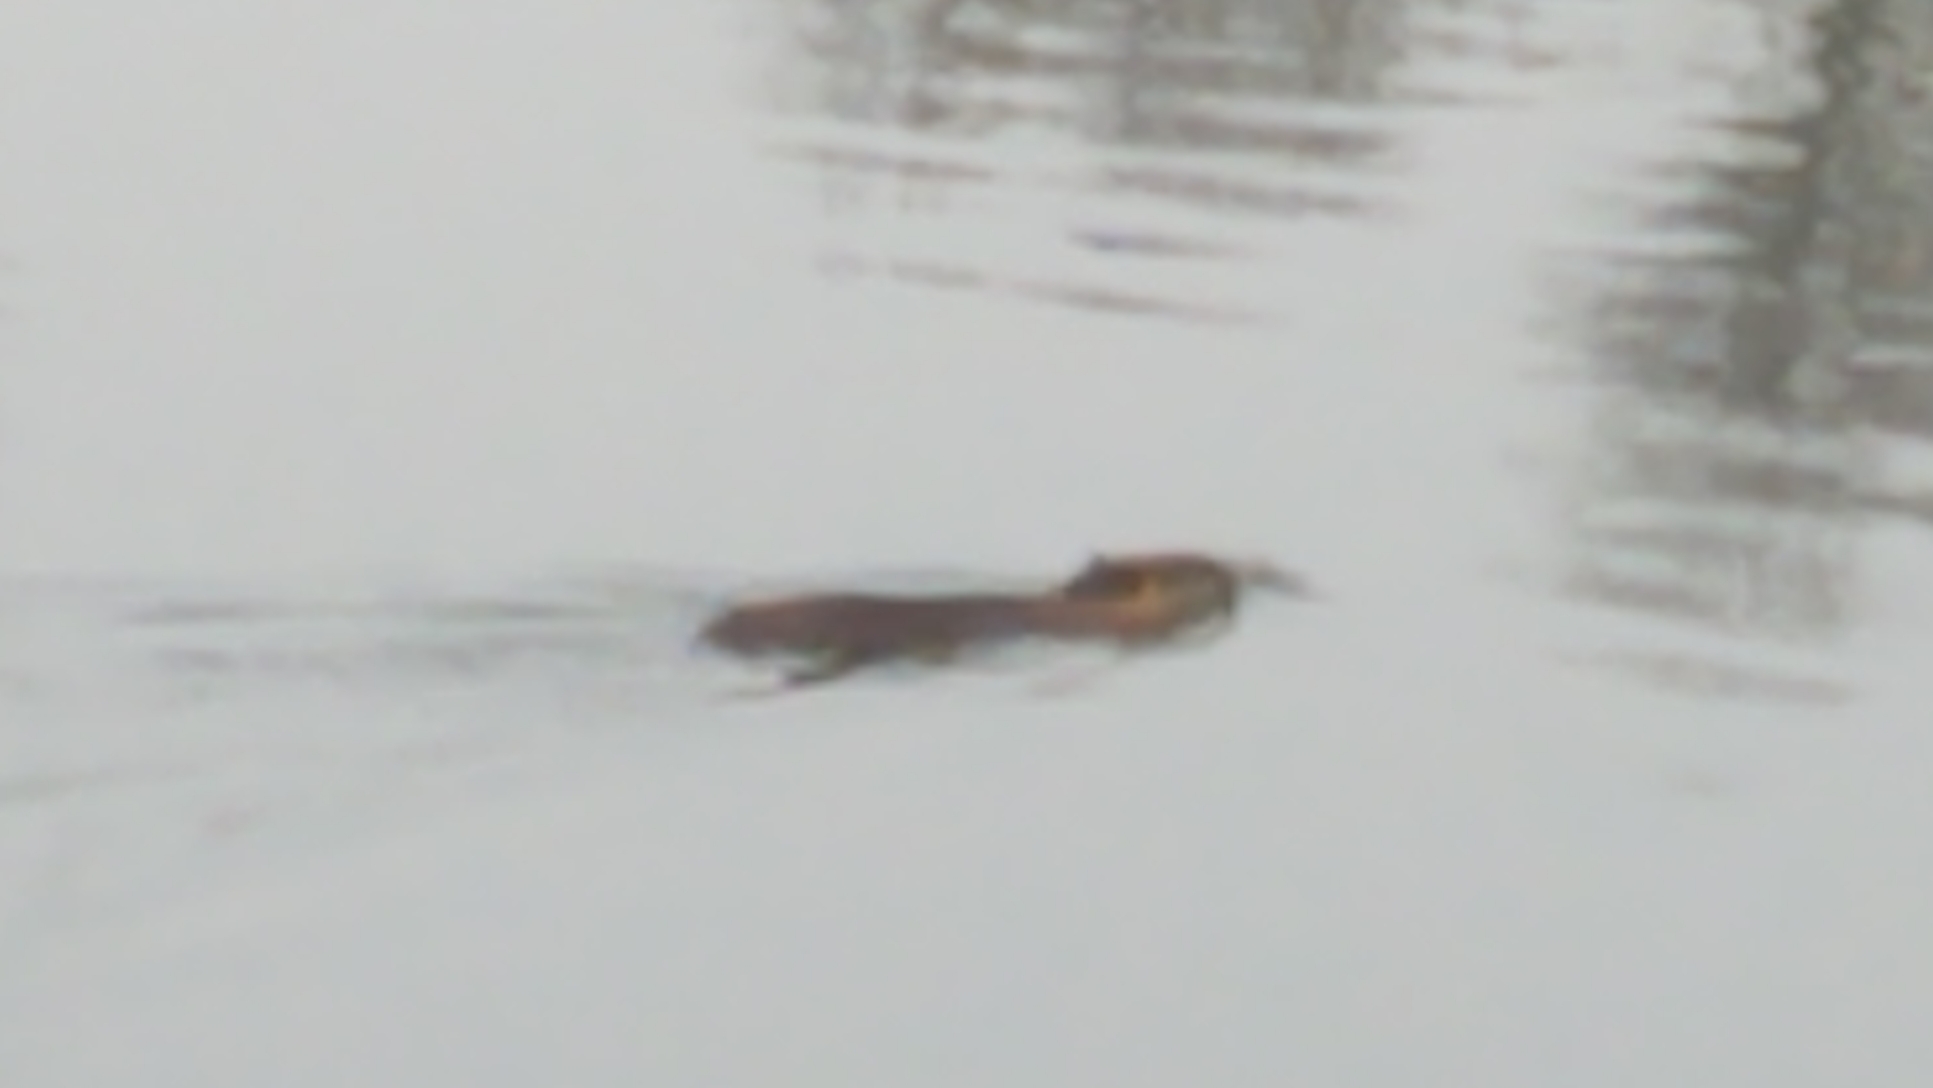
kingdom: Animalia
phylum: Chordata
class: Mammalia
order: Rodentia
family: Myocastoridae
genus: Myocastor
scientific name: Myocastor coypus
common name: Coypu
